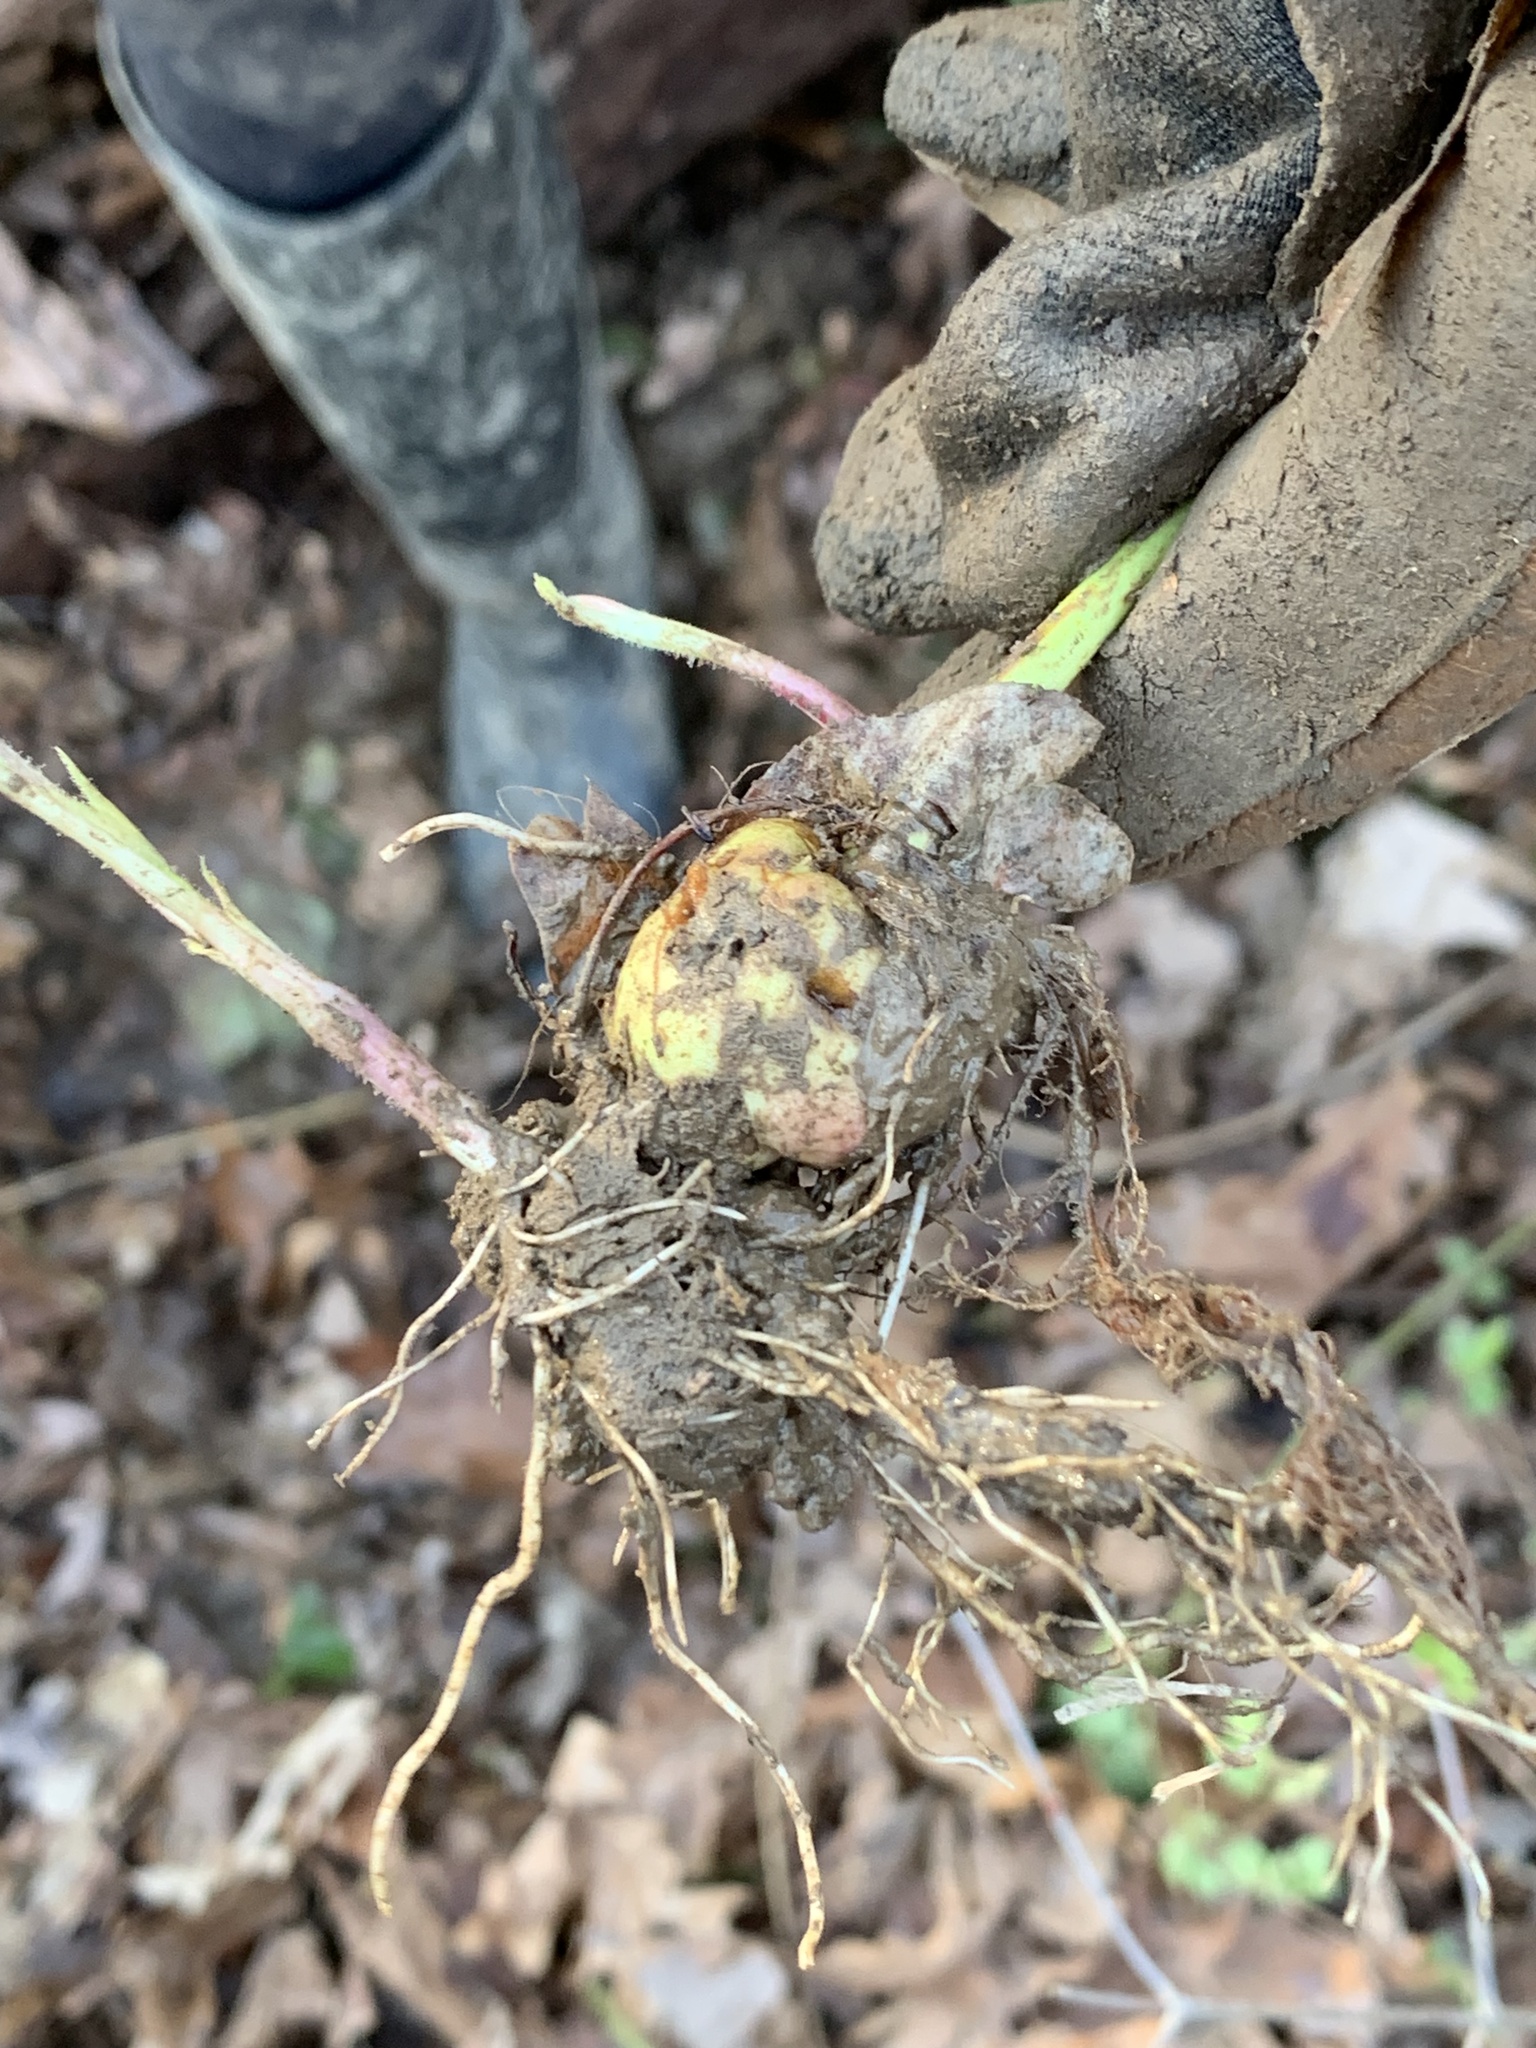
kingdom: Animalia
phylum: Arthropoda
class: Insecta
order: Hymenoptera
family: Cynipidae
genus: Diastrophus
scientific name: Diastrophus
